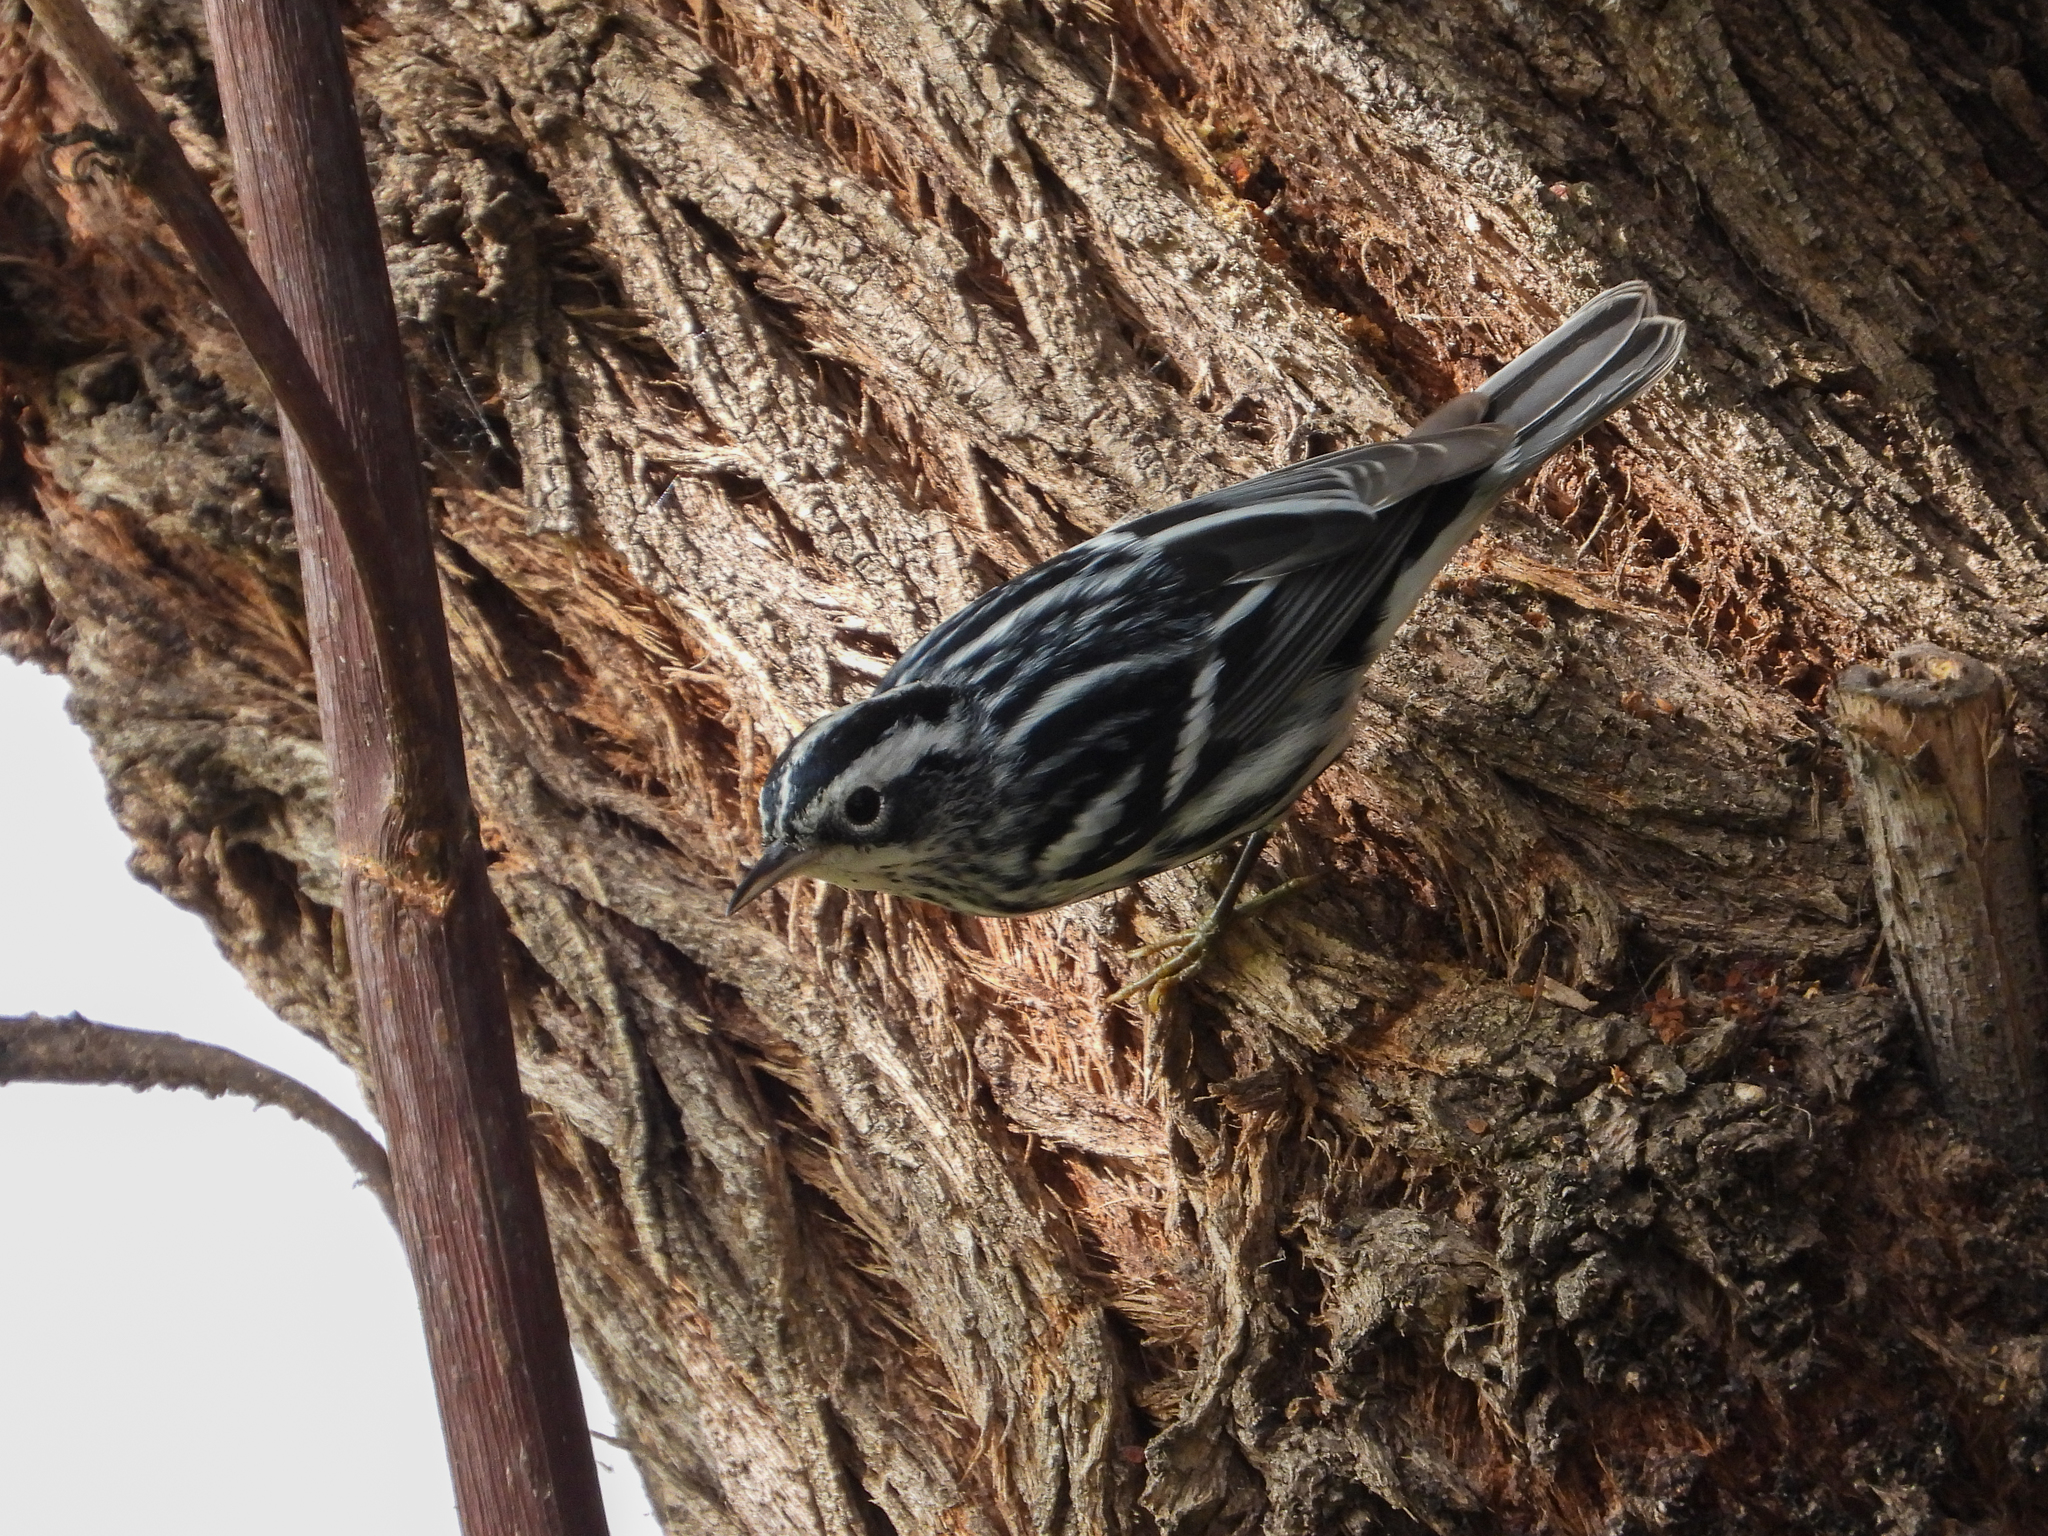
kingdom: Animalia
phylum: Chordata
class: Aves
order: Passeriformes
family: Parulidae
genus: Mniotilta
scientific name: Mniotilta varia
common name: Black-and-white warbler
